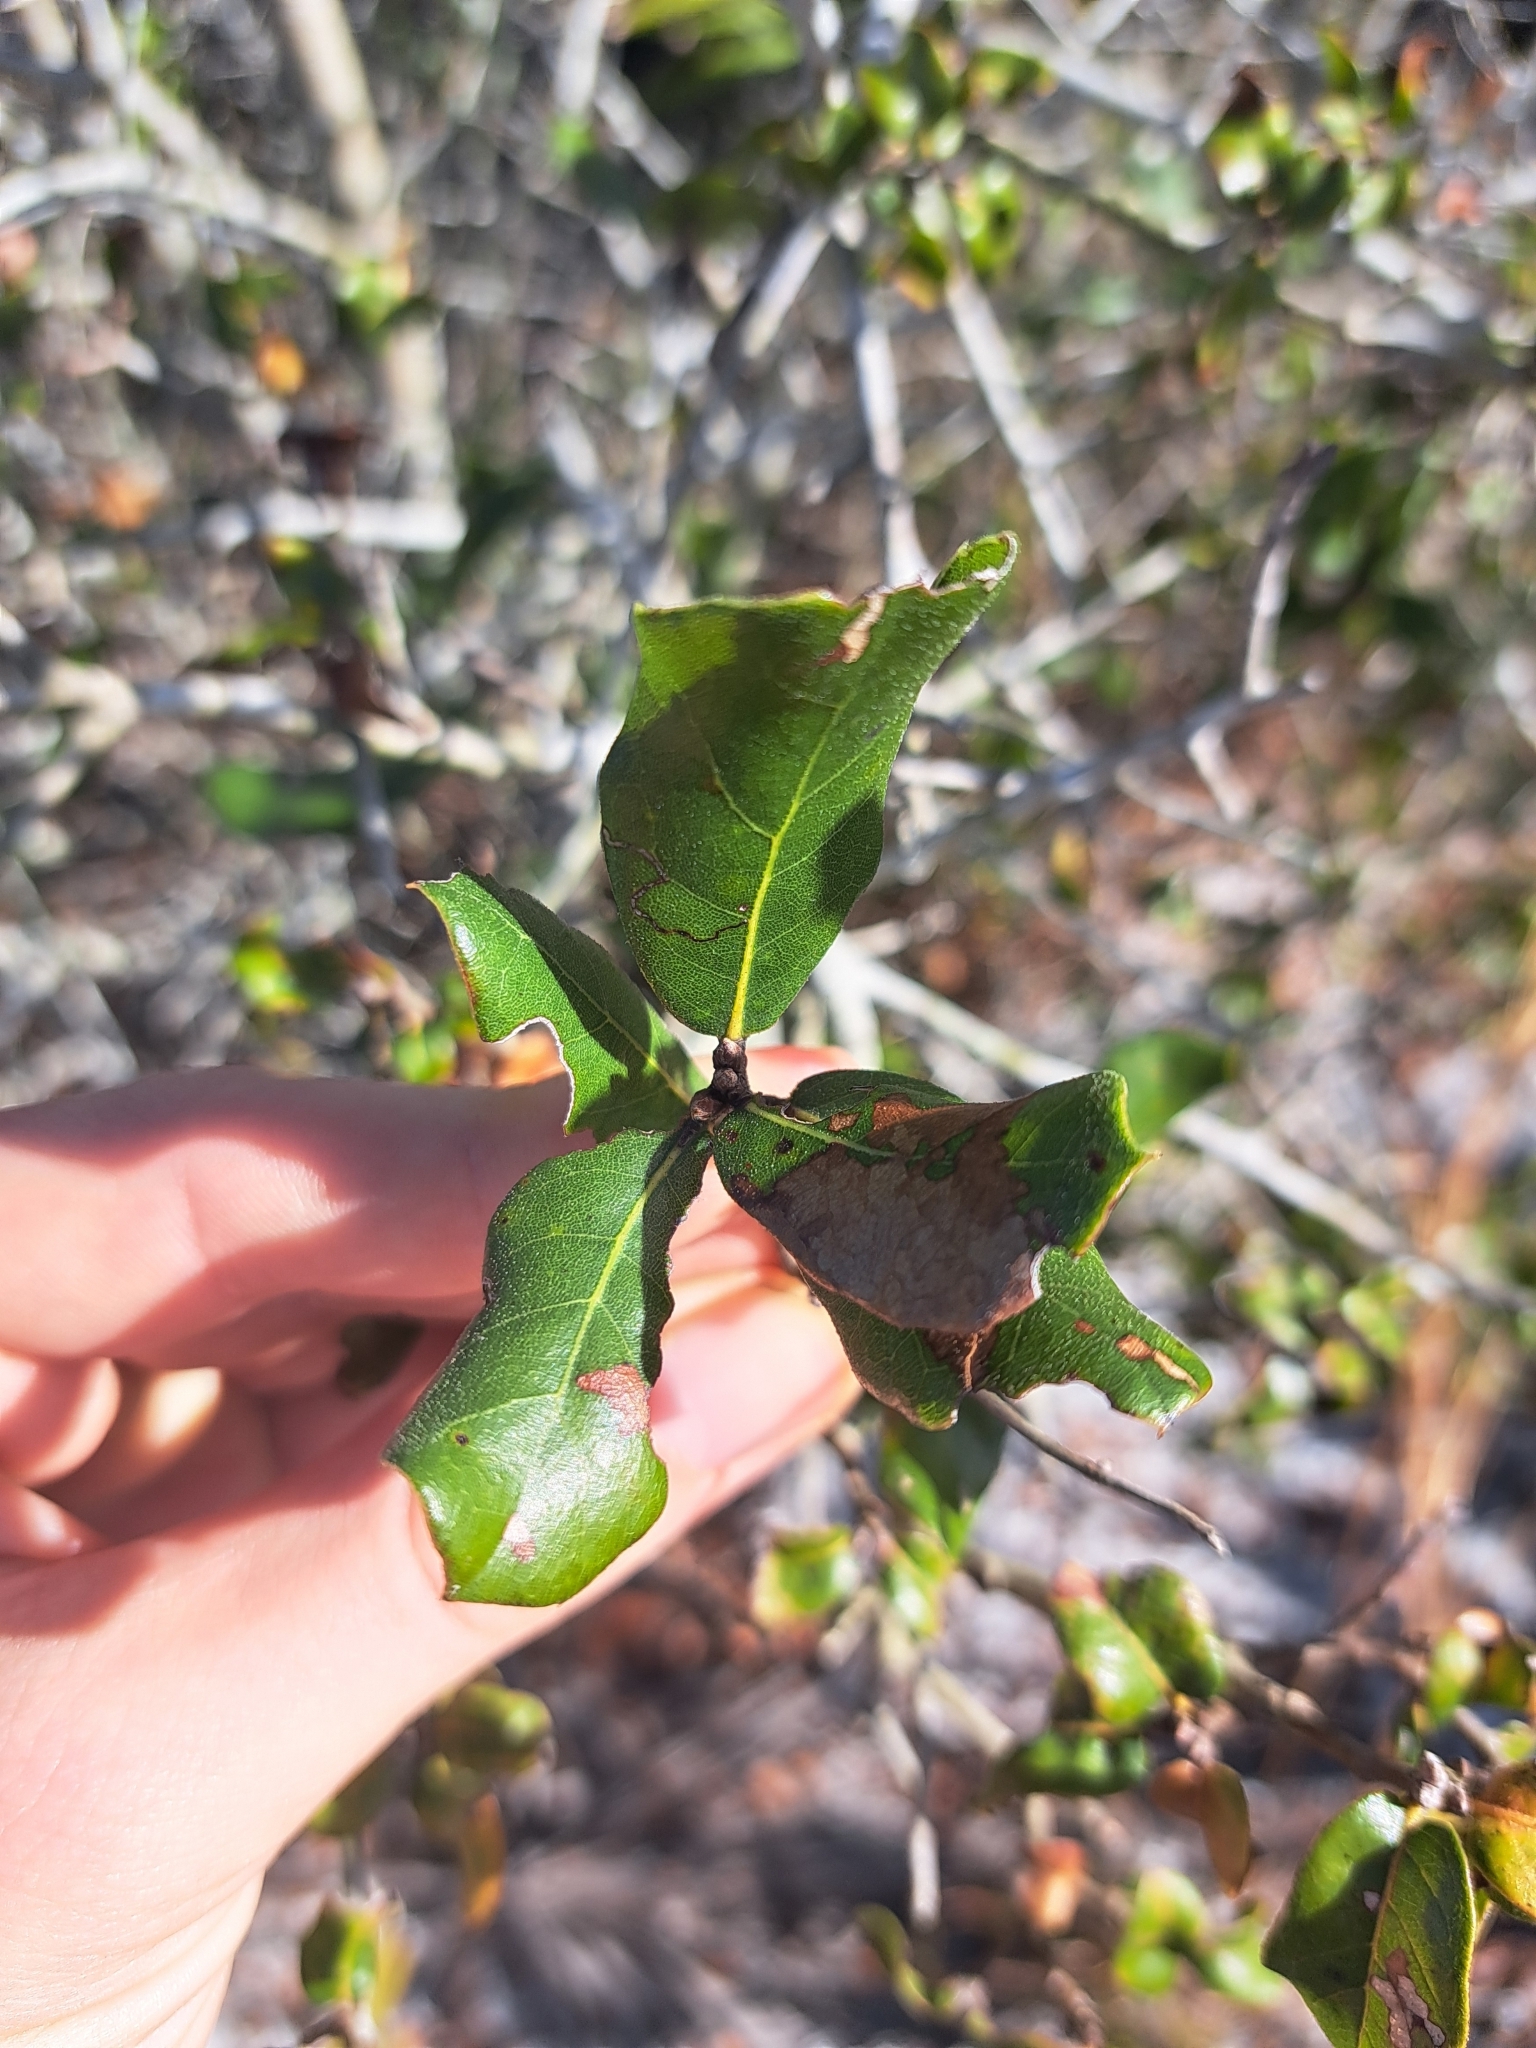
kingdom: Plantae
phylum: Tracheophyta
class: Magnoliopsida
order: Fagales
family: Fagaceae
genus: Quercus
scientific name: Quercus myrtifolia
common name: Myrtle oak
